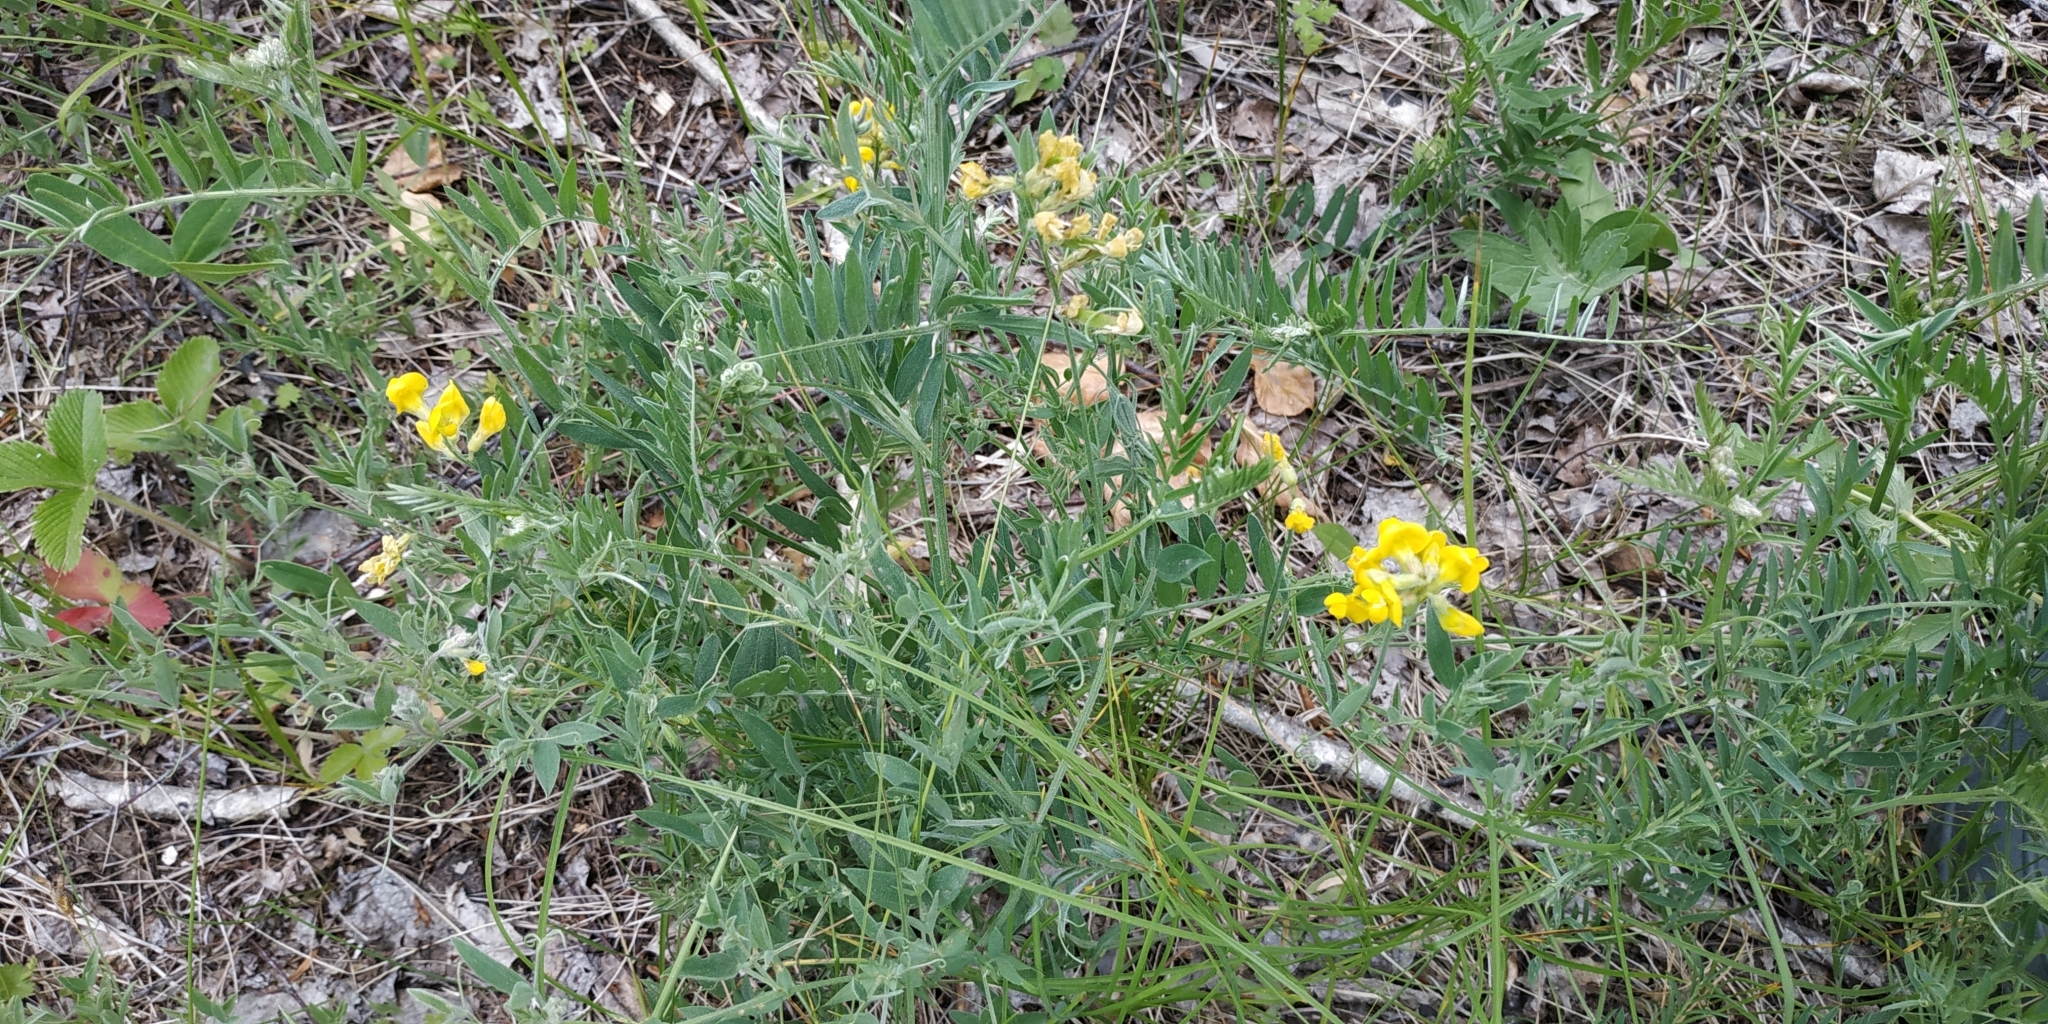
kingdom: Plantae
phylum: Tracheophyta
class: Magnoliopsida
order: Fabales
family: Fabaceae
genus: Lathyrus
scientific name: Lathyrus pratensis
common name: Meadow vetchling
